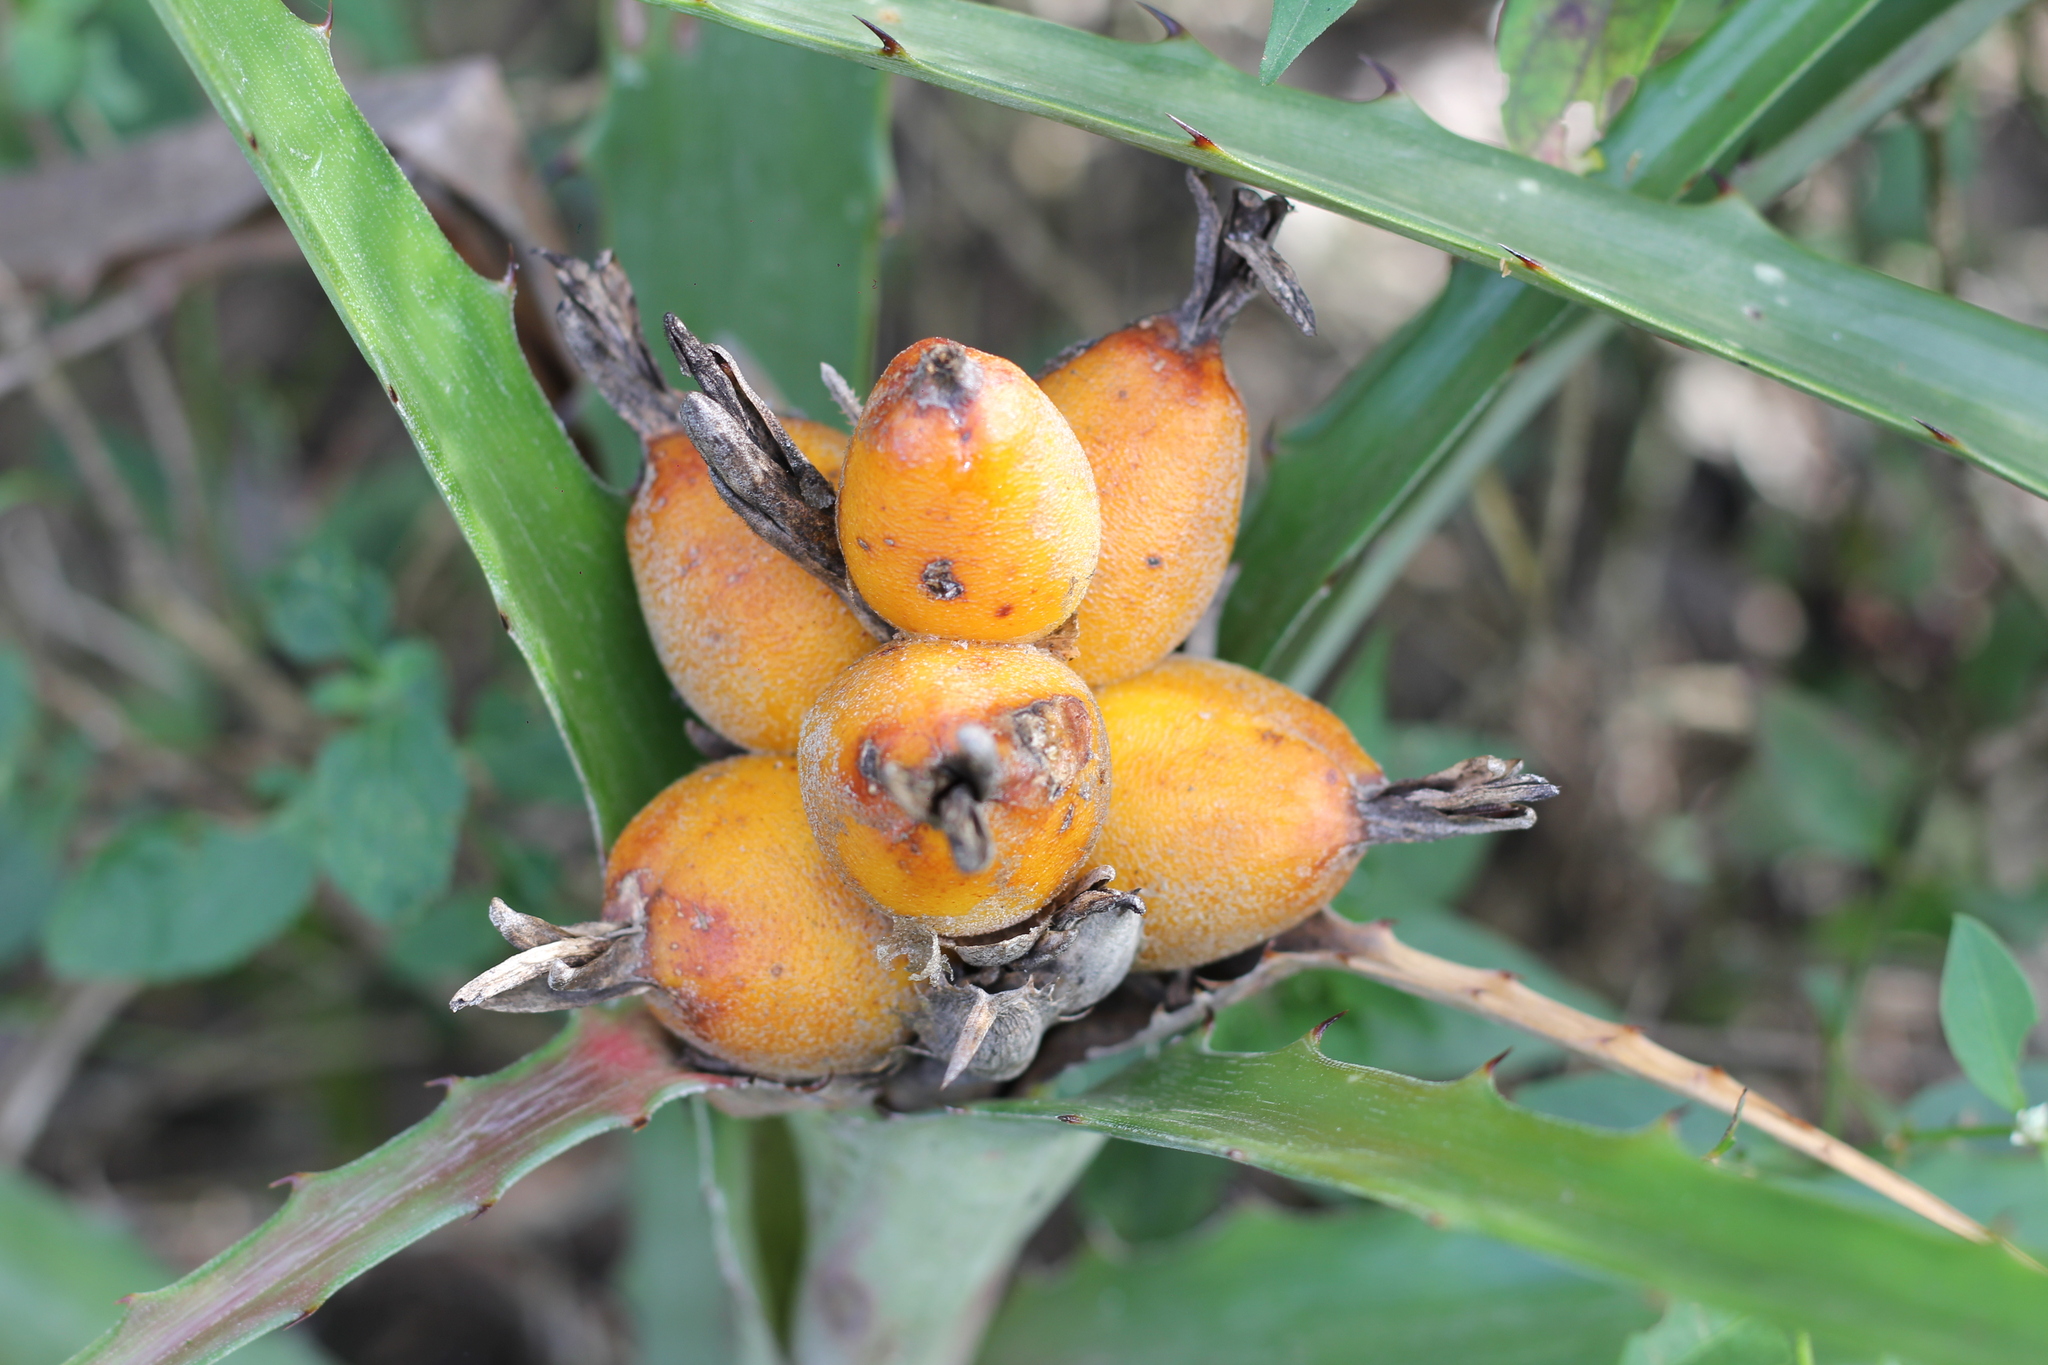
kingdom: Plantae
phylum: Tracheophyta
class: Liliopsida
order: Poales
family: Bromeliaceae
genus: Bromelia
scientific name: Bromelia balansae
